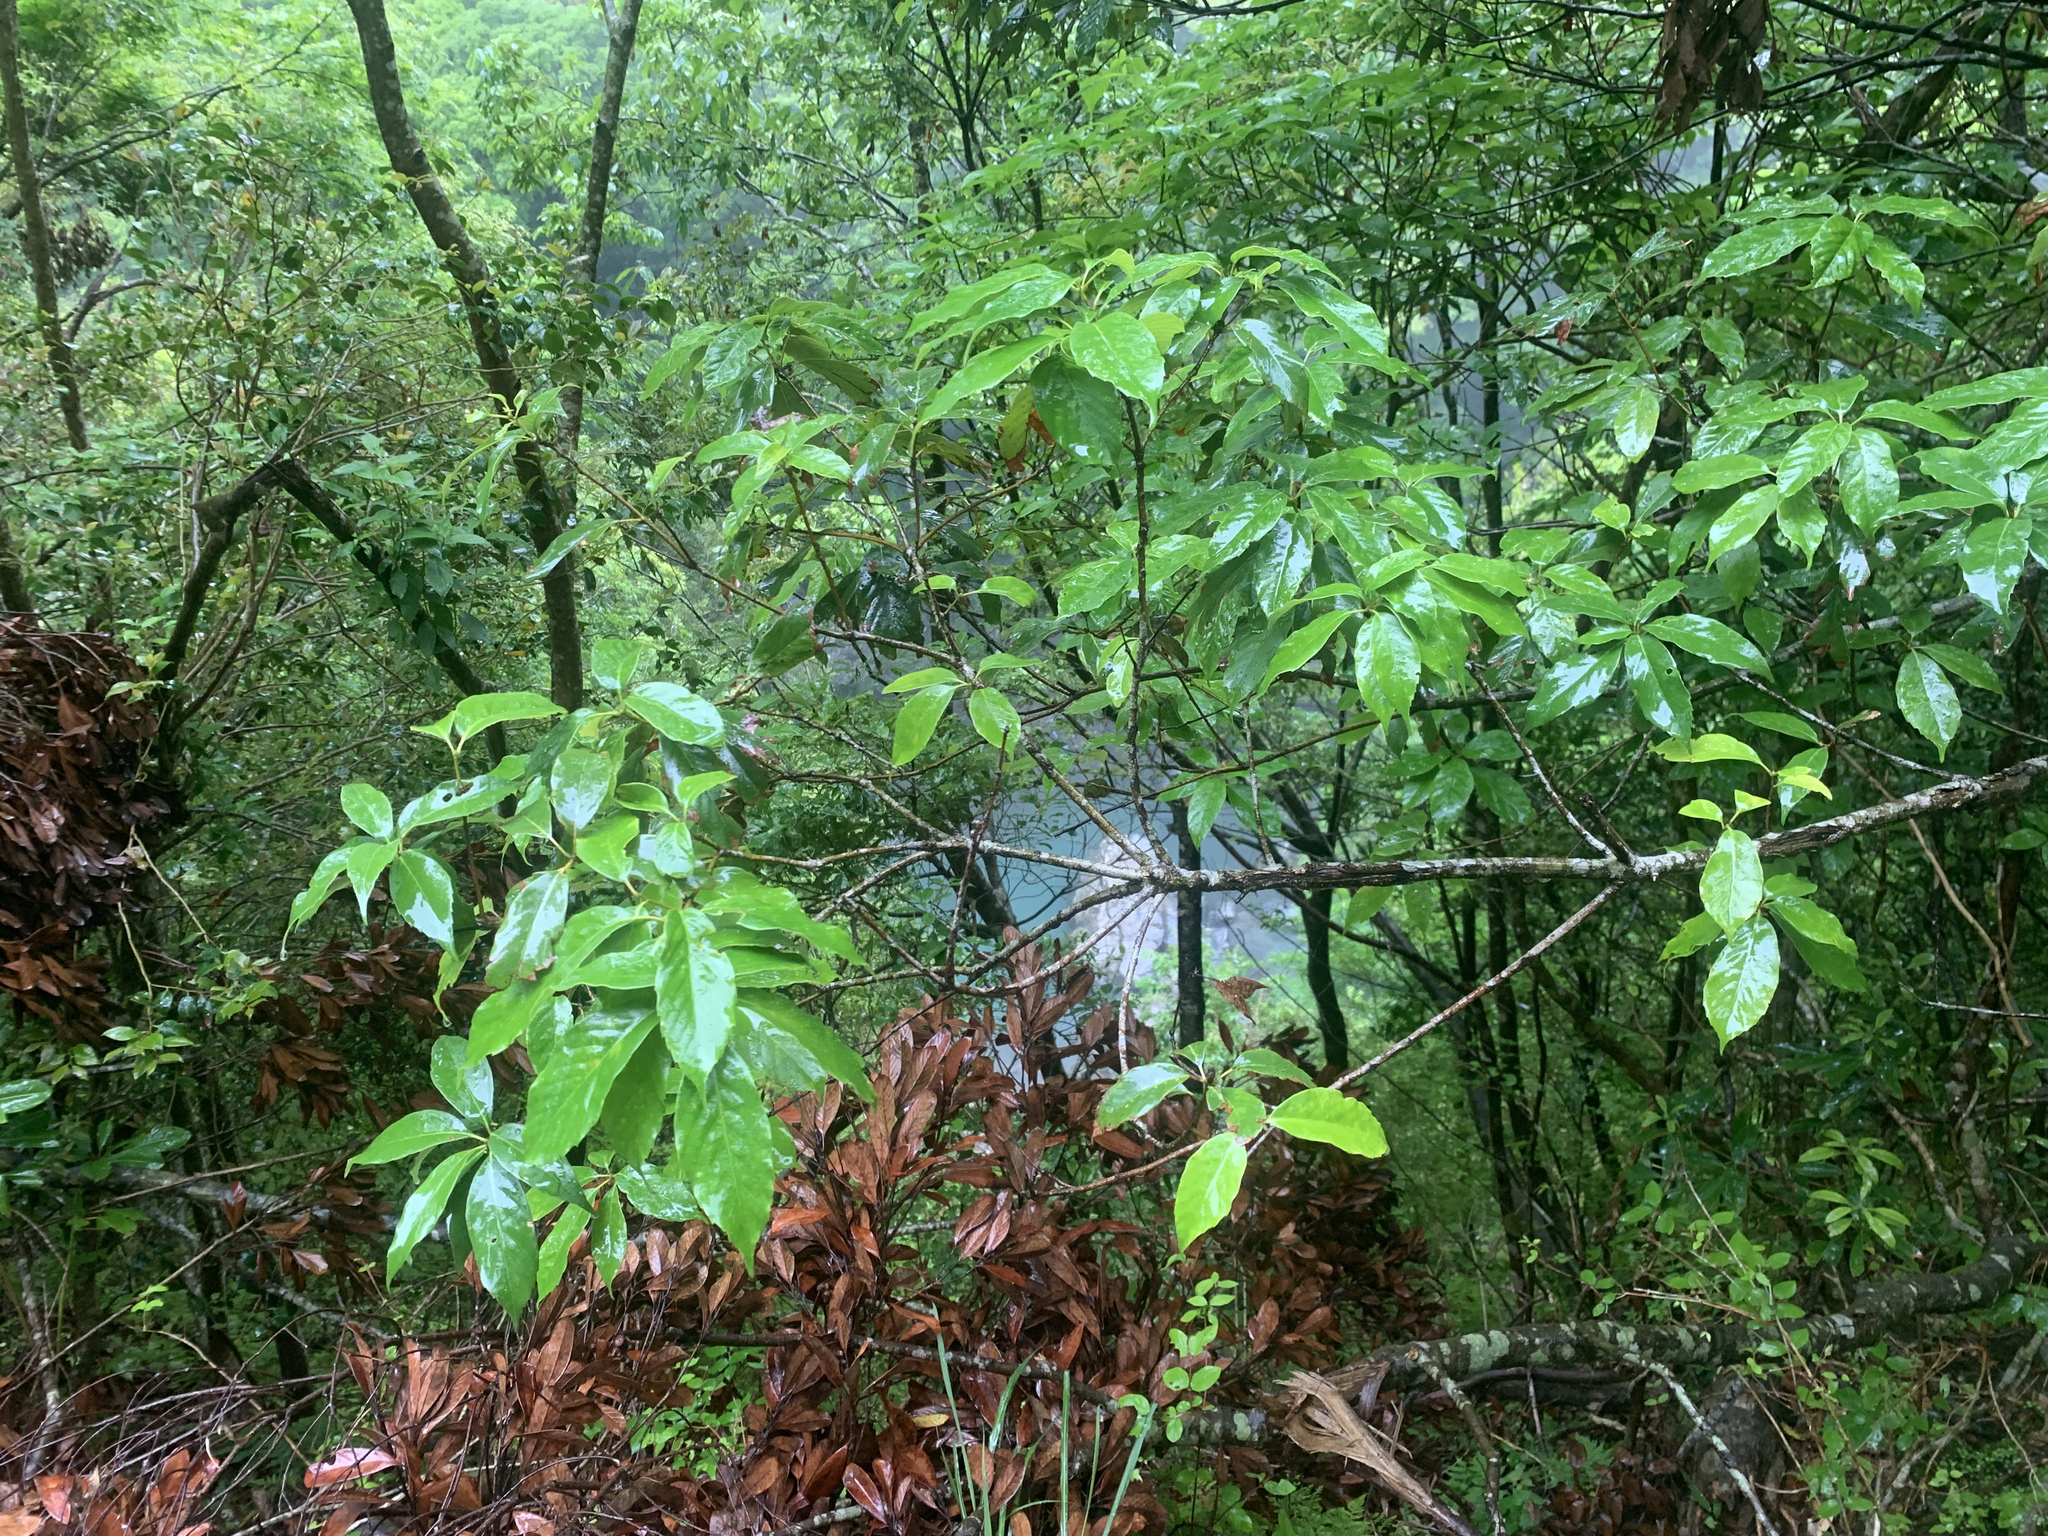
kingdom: Plantae
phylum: Tracheophyta
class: Magnoliopsida
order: Fagales
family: Fagaceae
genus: Quercus
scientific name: Quercus glauca
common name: Ring-cup oak
